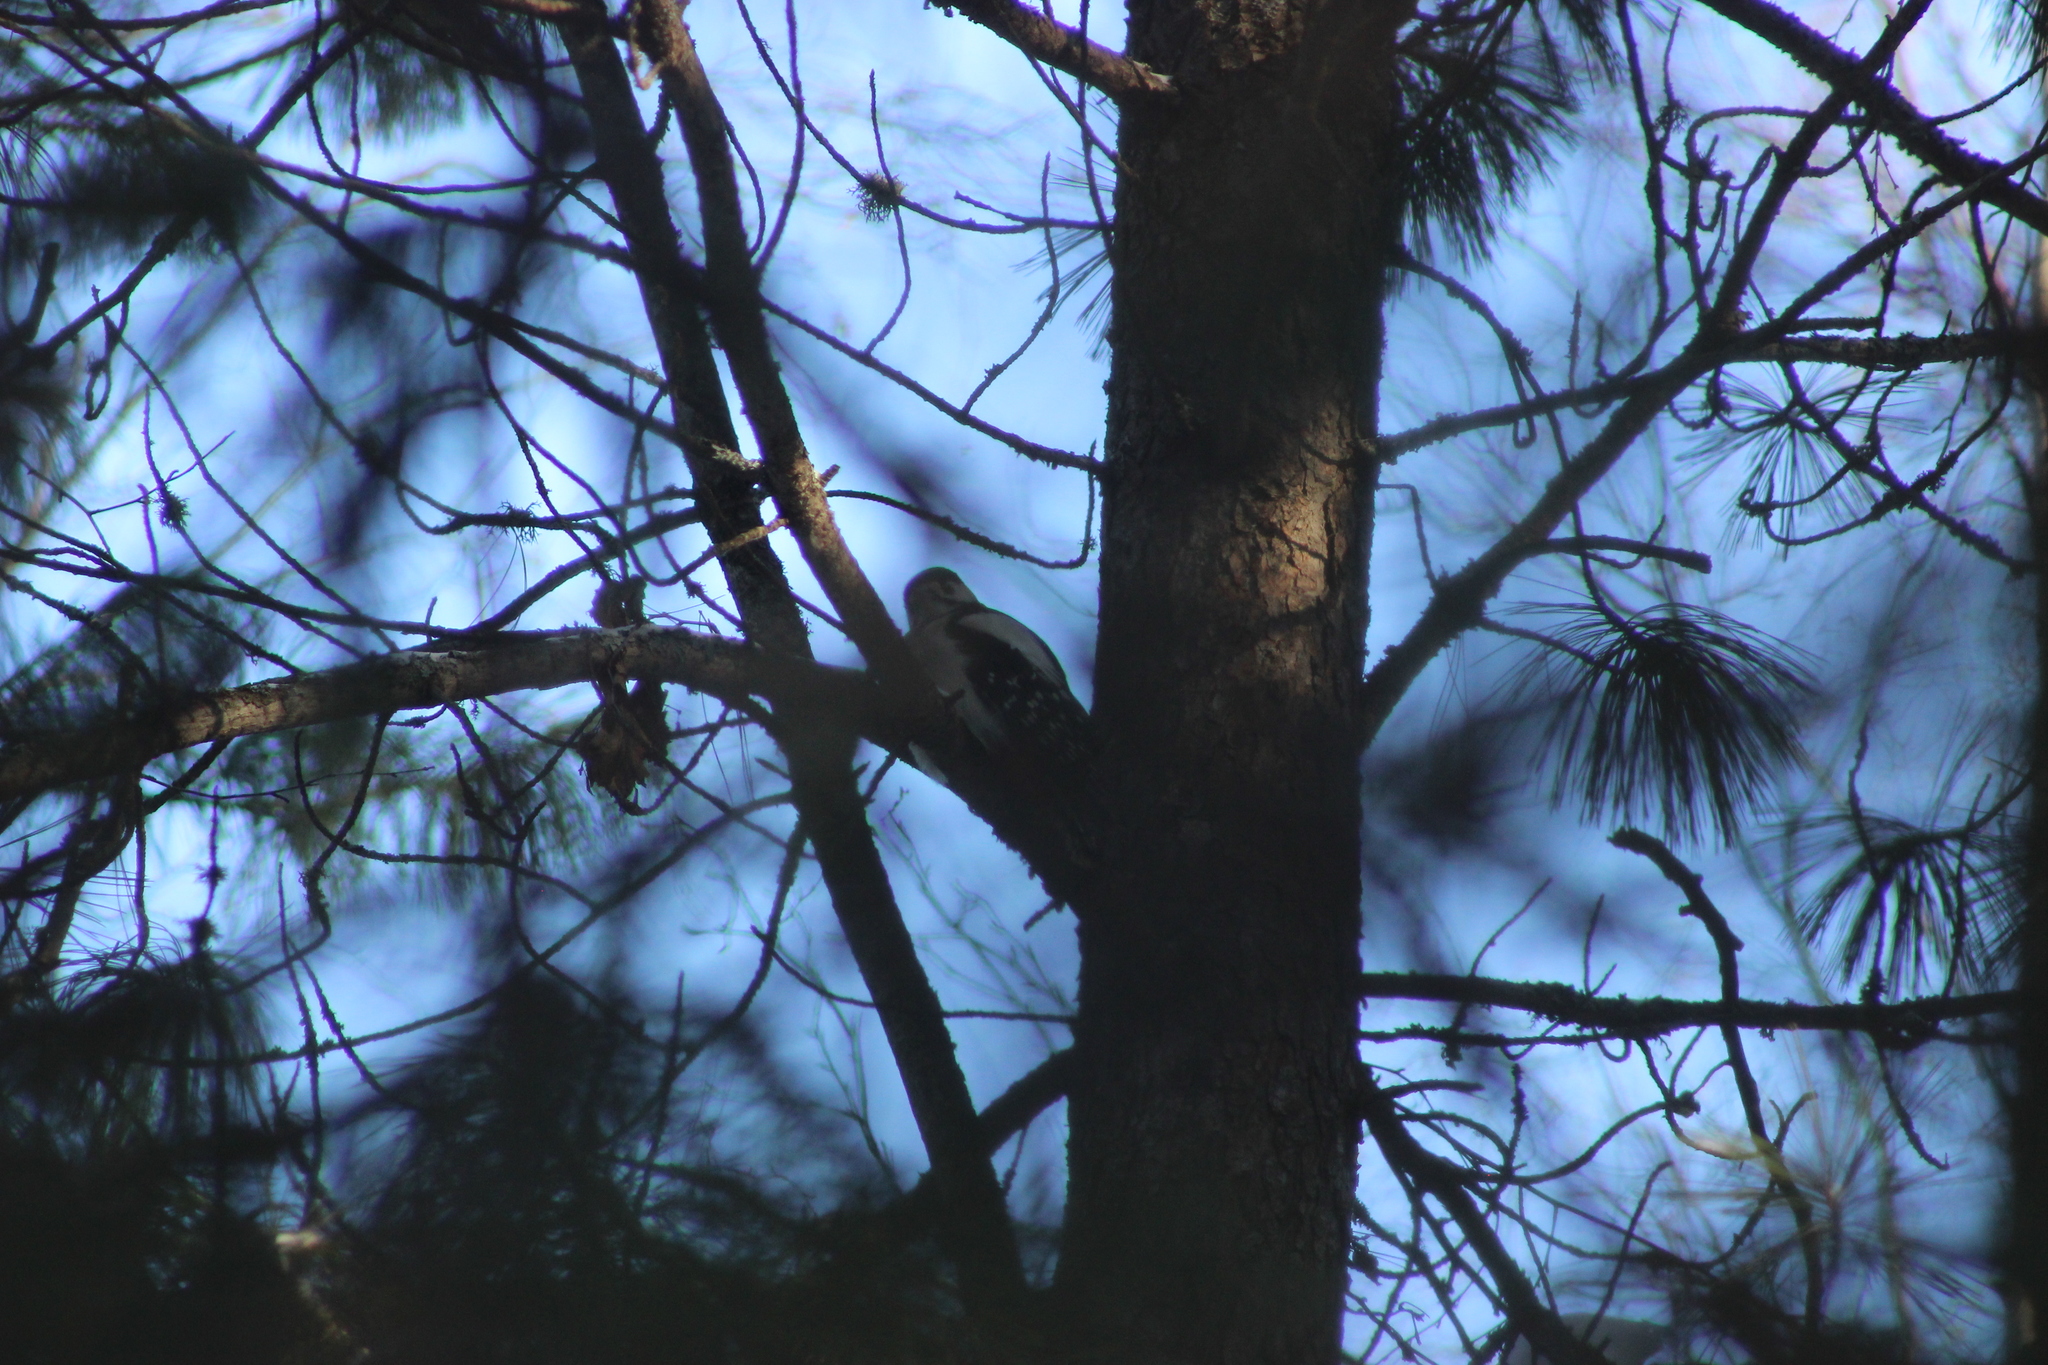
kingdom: Animalia
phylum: Chordata
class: Aves
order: Piciformes
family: Picidae
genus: Dendrocopos
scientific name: Dendrocopos major
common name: Great spotted woodpecker
